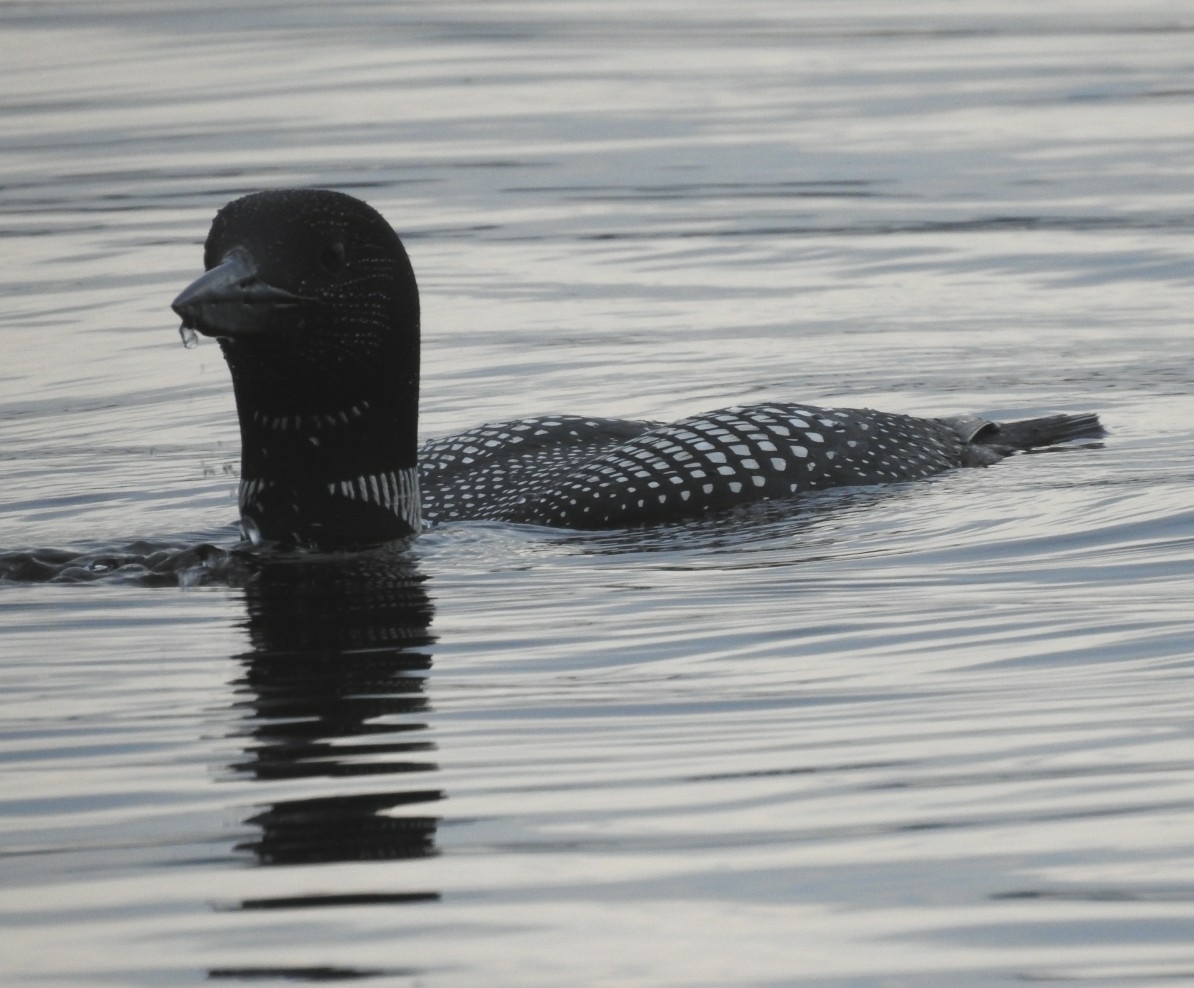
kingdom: Animalia
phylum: Chordata
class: Aves
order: Gaviiformes
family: Gaviidae
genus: Gavia
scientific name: Gavia immer
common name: Common loon
